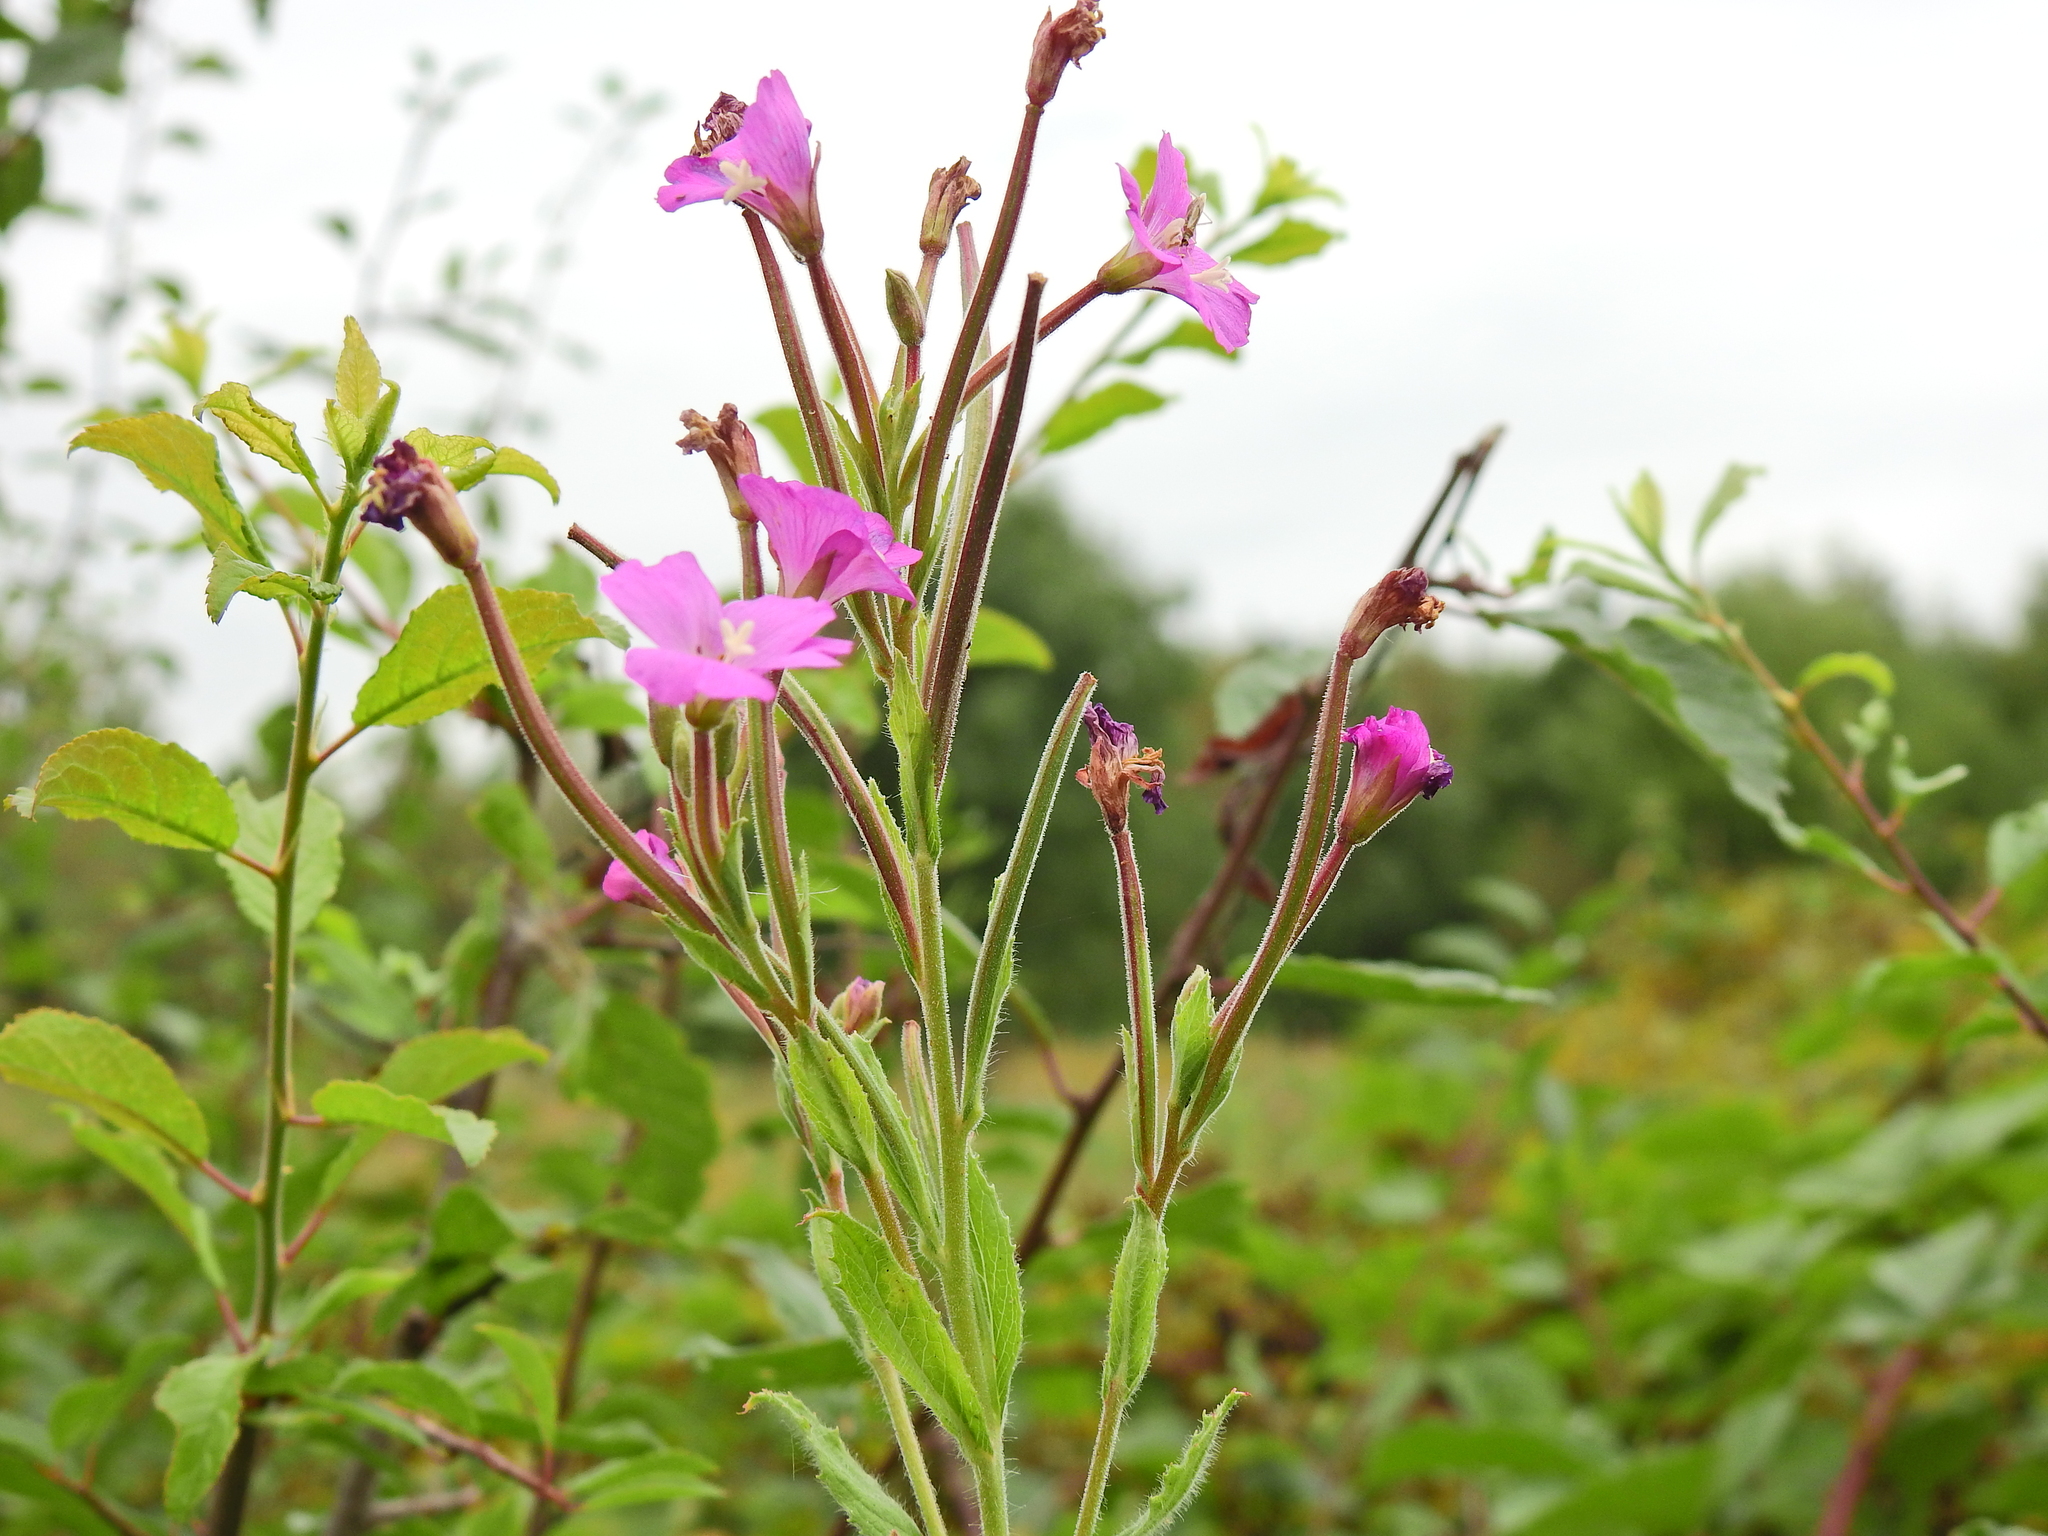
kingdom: Plantae
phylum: Tracheophyta
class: Magnoliopsida
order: Myrtales
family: Onagraceae
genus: Epilobium
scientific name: Epilobium hirsutum
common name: Great willowherb
